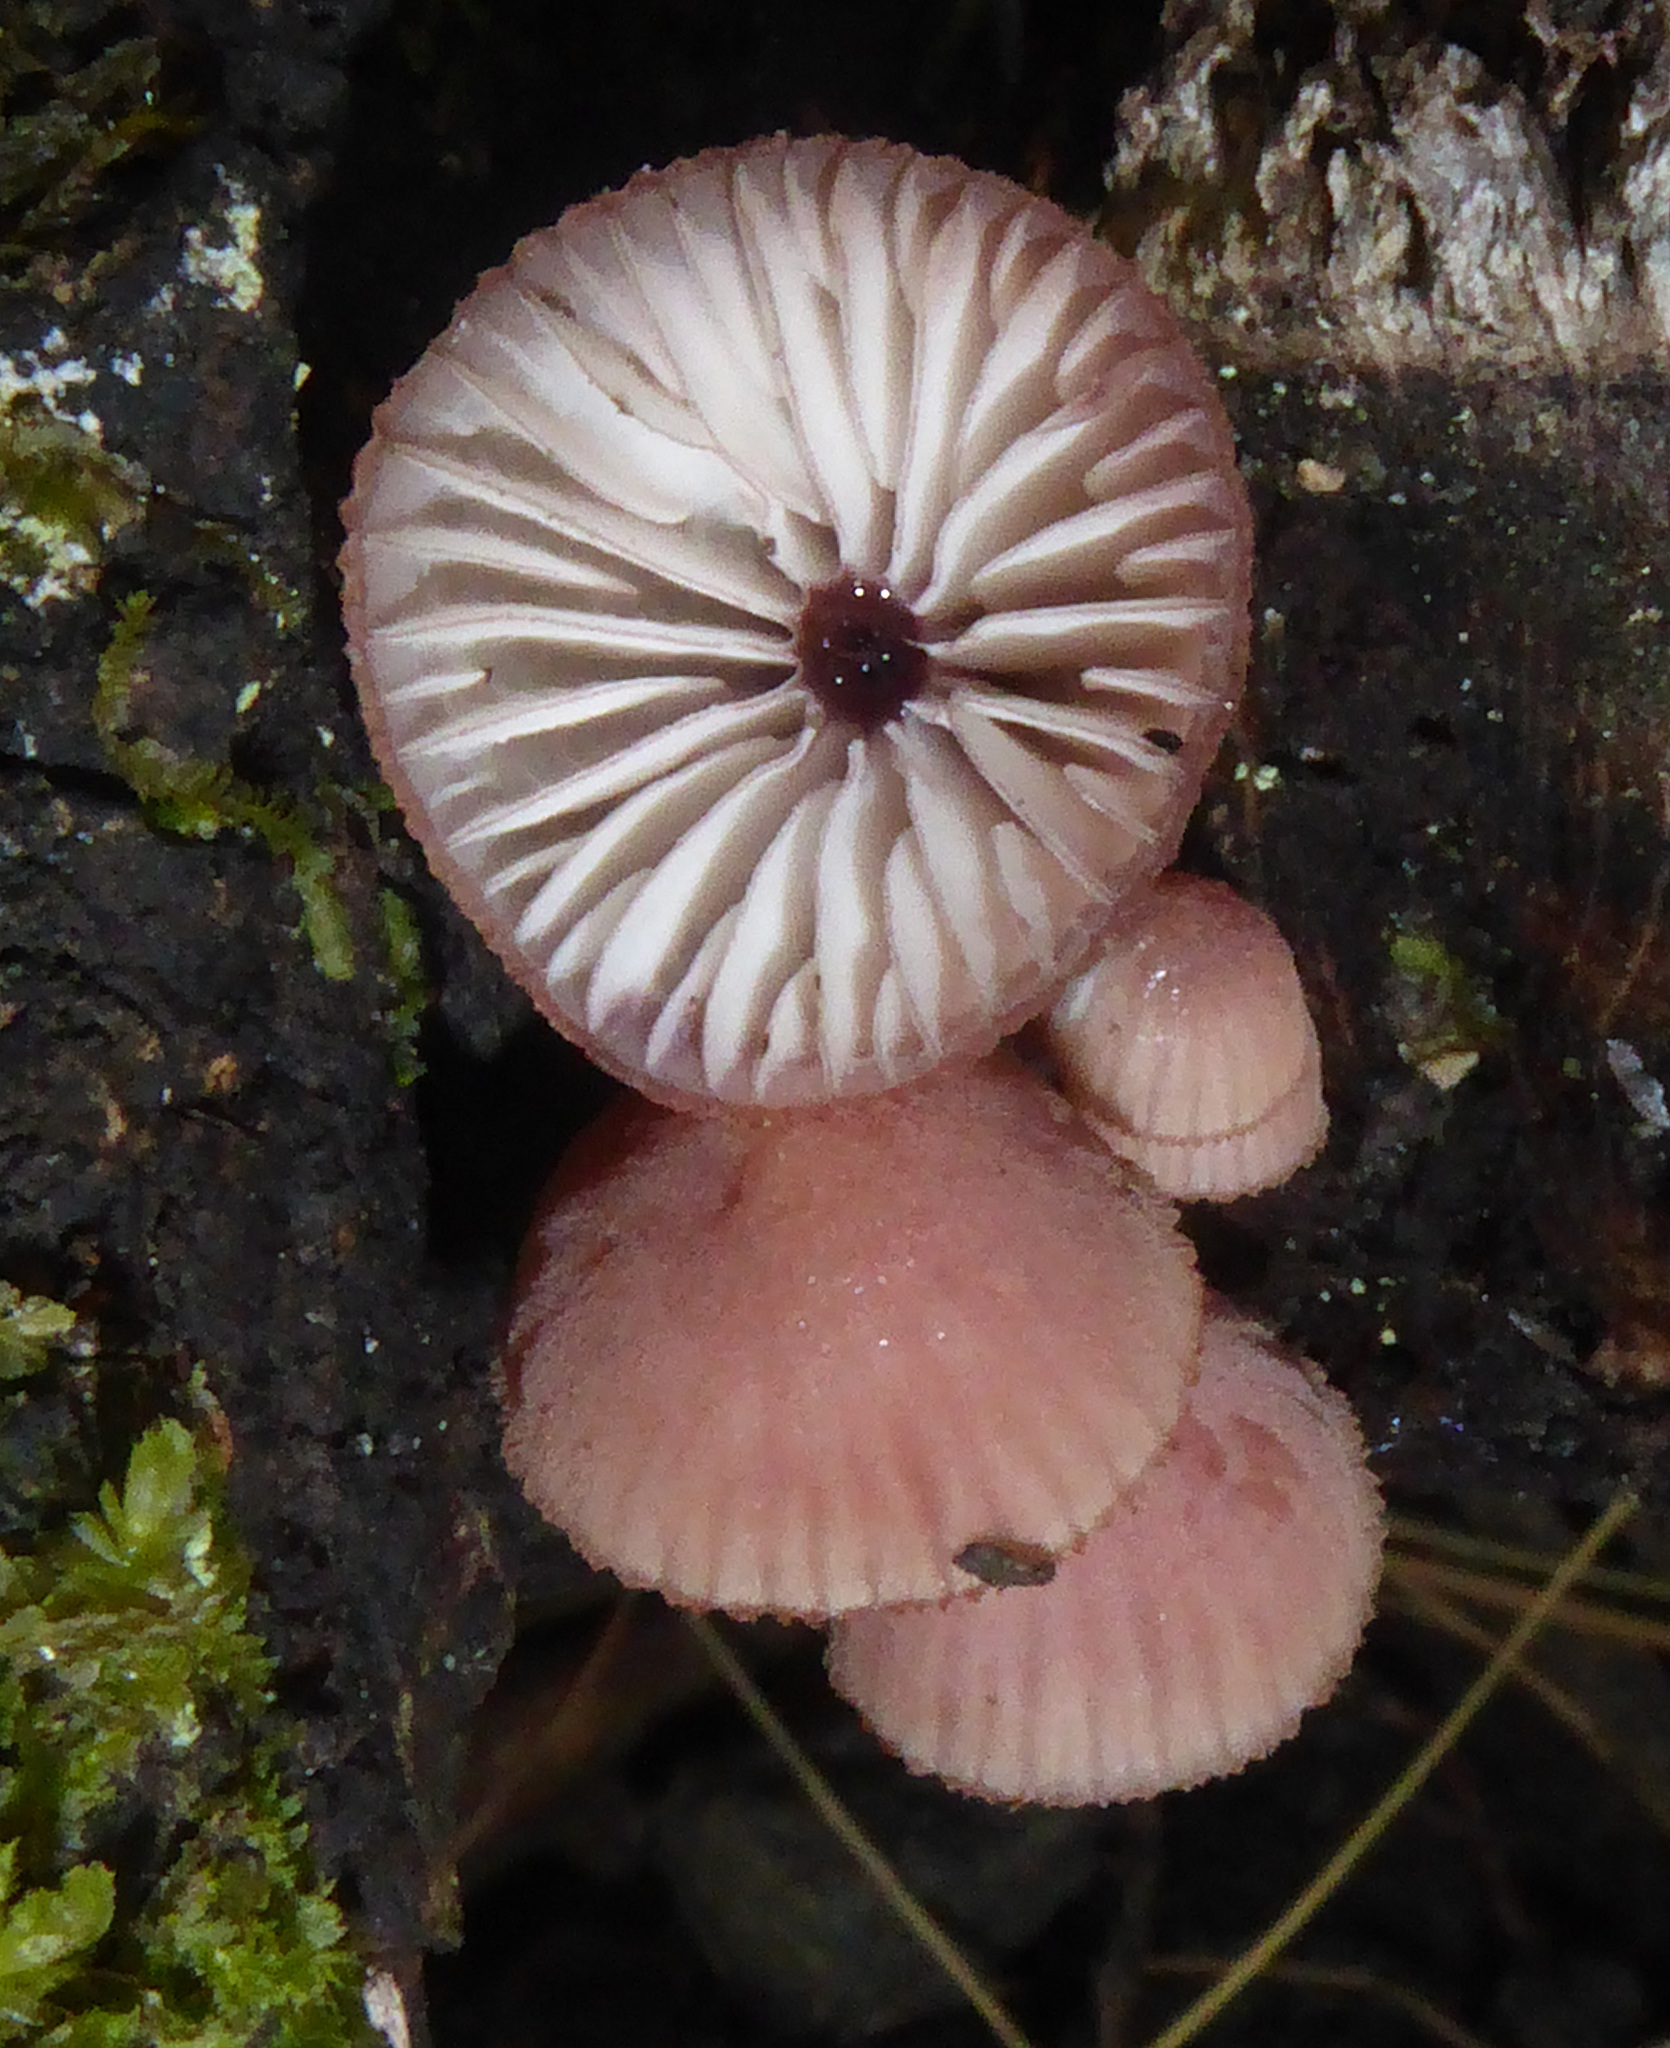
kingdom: Fungi
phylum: Basidiomycota
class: Agaricomycetes
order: Agaricales
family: Mycenaceae
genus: Mycena
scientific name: Mycena mariae
